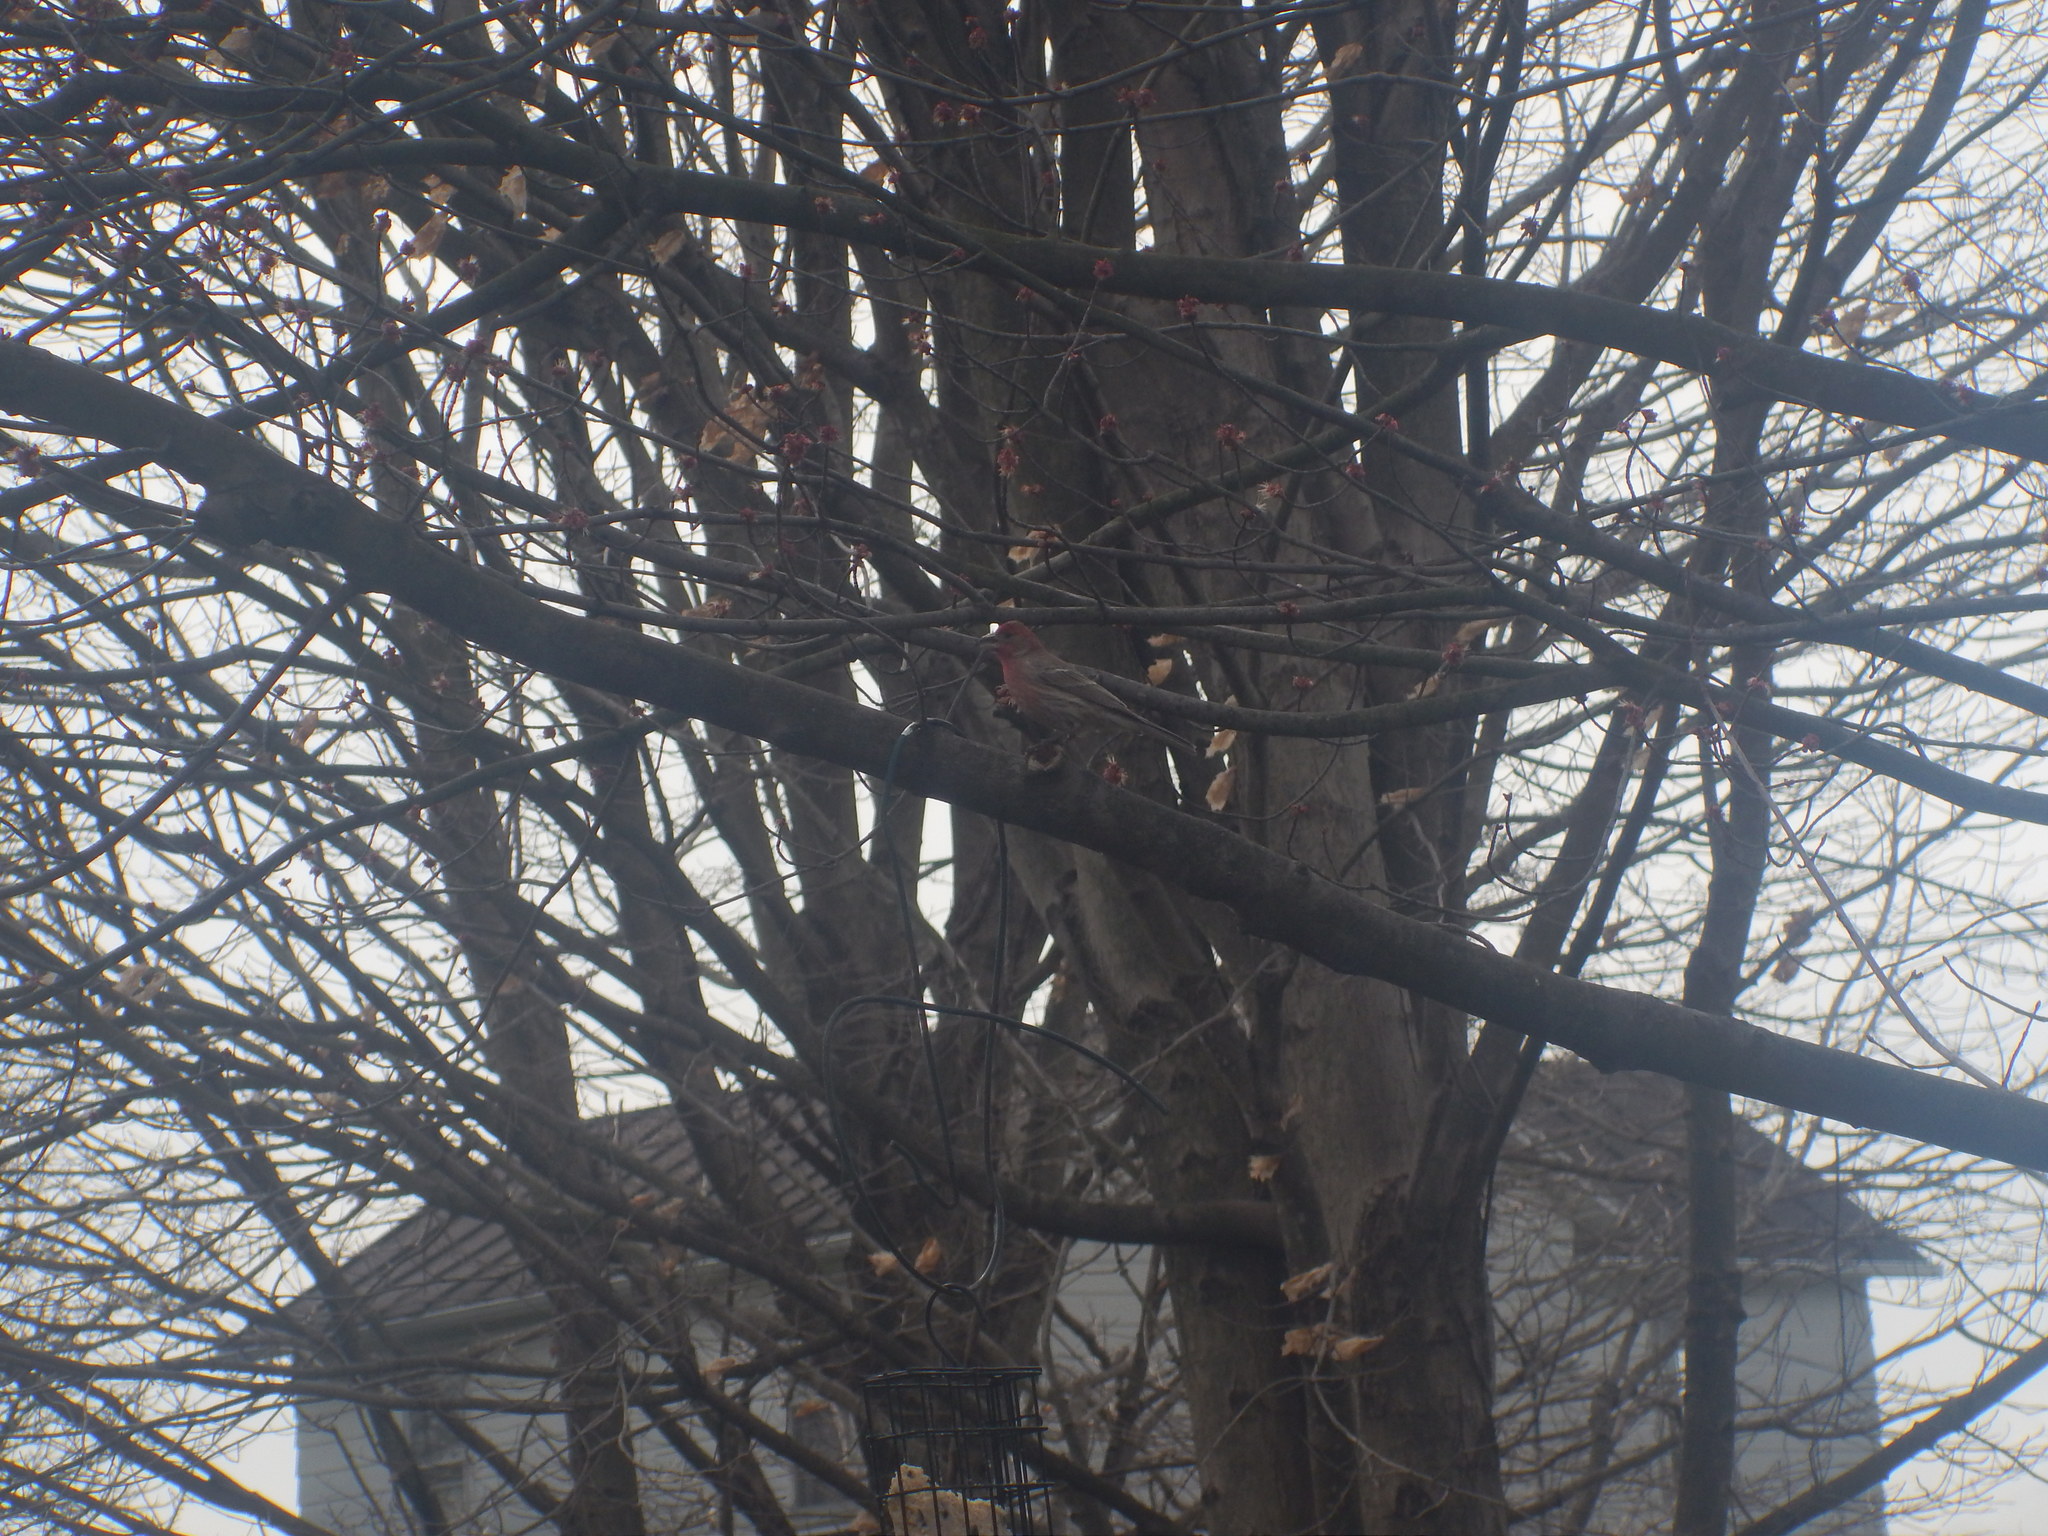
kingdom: Animalia
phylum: Chordata
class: Aves
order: Passeriformes
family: Fringillidae
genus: Haemorhous
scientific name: Haemorhous mexicanus
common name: House finch
